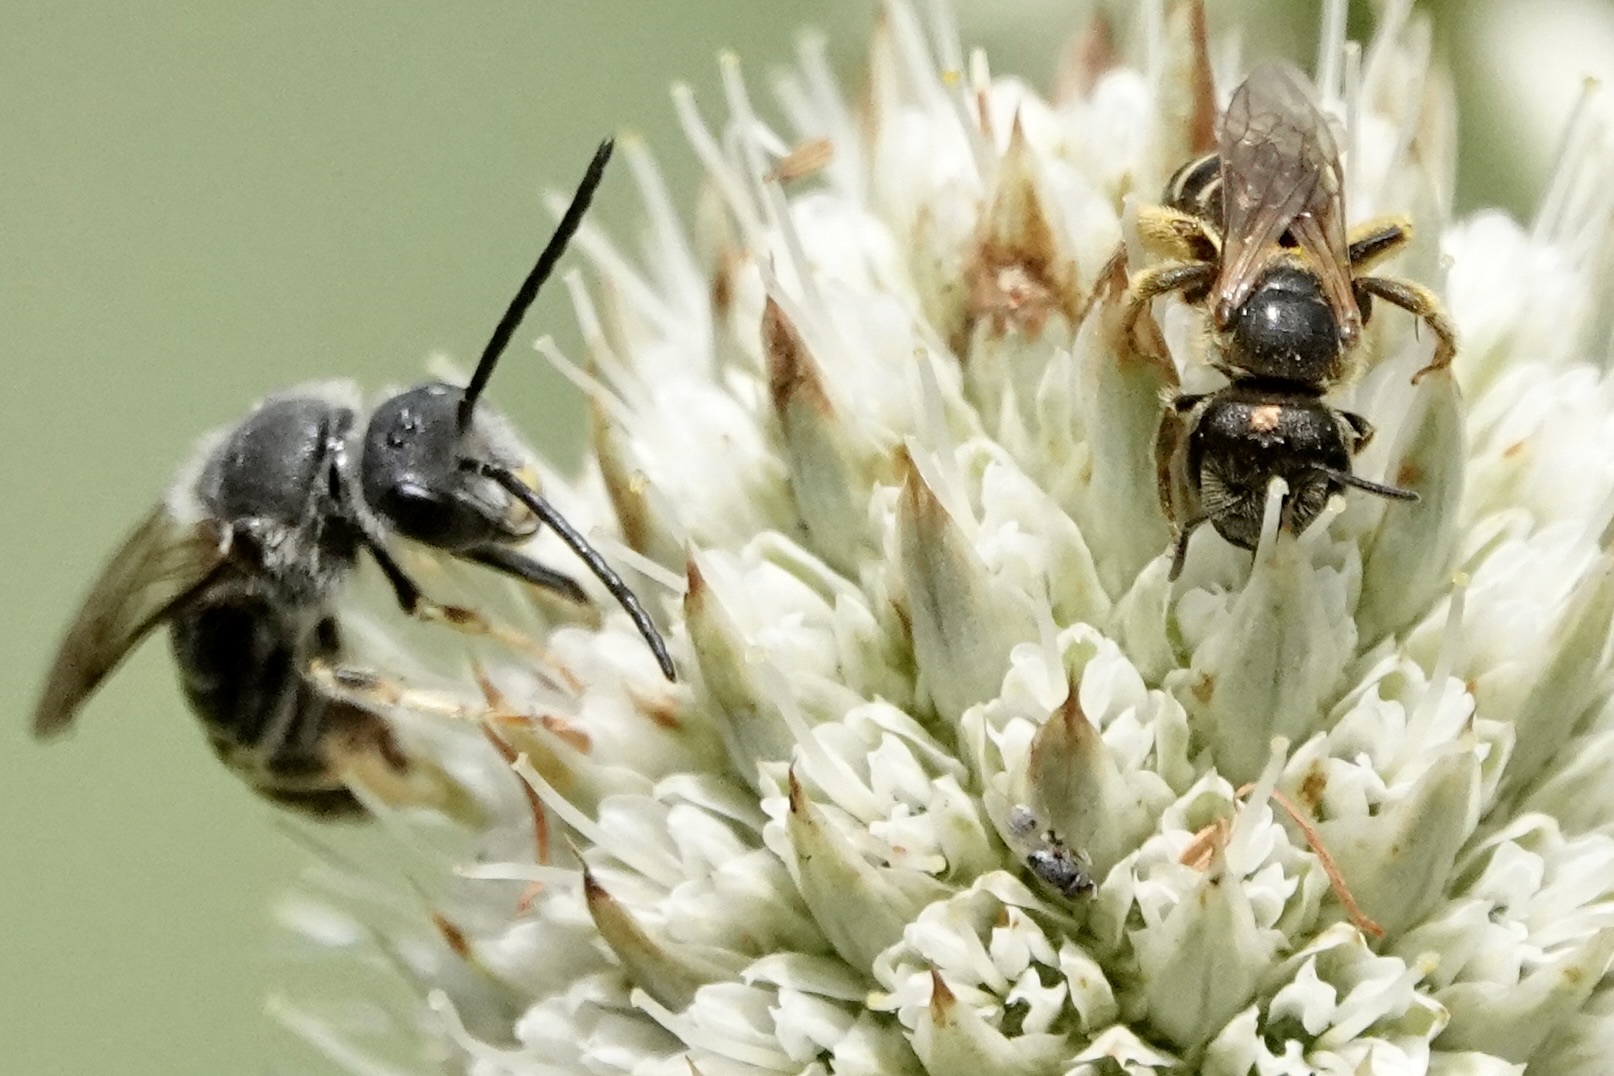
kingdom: Animalia
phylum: Arthropoda
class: Insecta
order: Hymenoptera
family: Halictidae
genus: Halictus
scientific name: Halictus ligatus
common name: Ligated furrow bee
